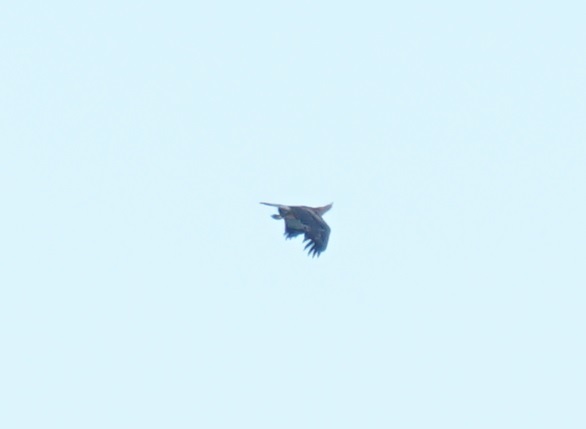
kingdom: Animalia
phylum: Chordata
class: Aves
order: Accipitriformes
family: Accipitridae
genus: Haliaeetus
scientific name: Haliaeetus leucogaster
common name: White-bellied sea eagle
